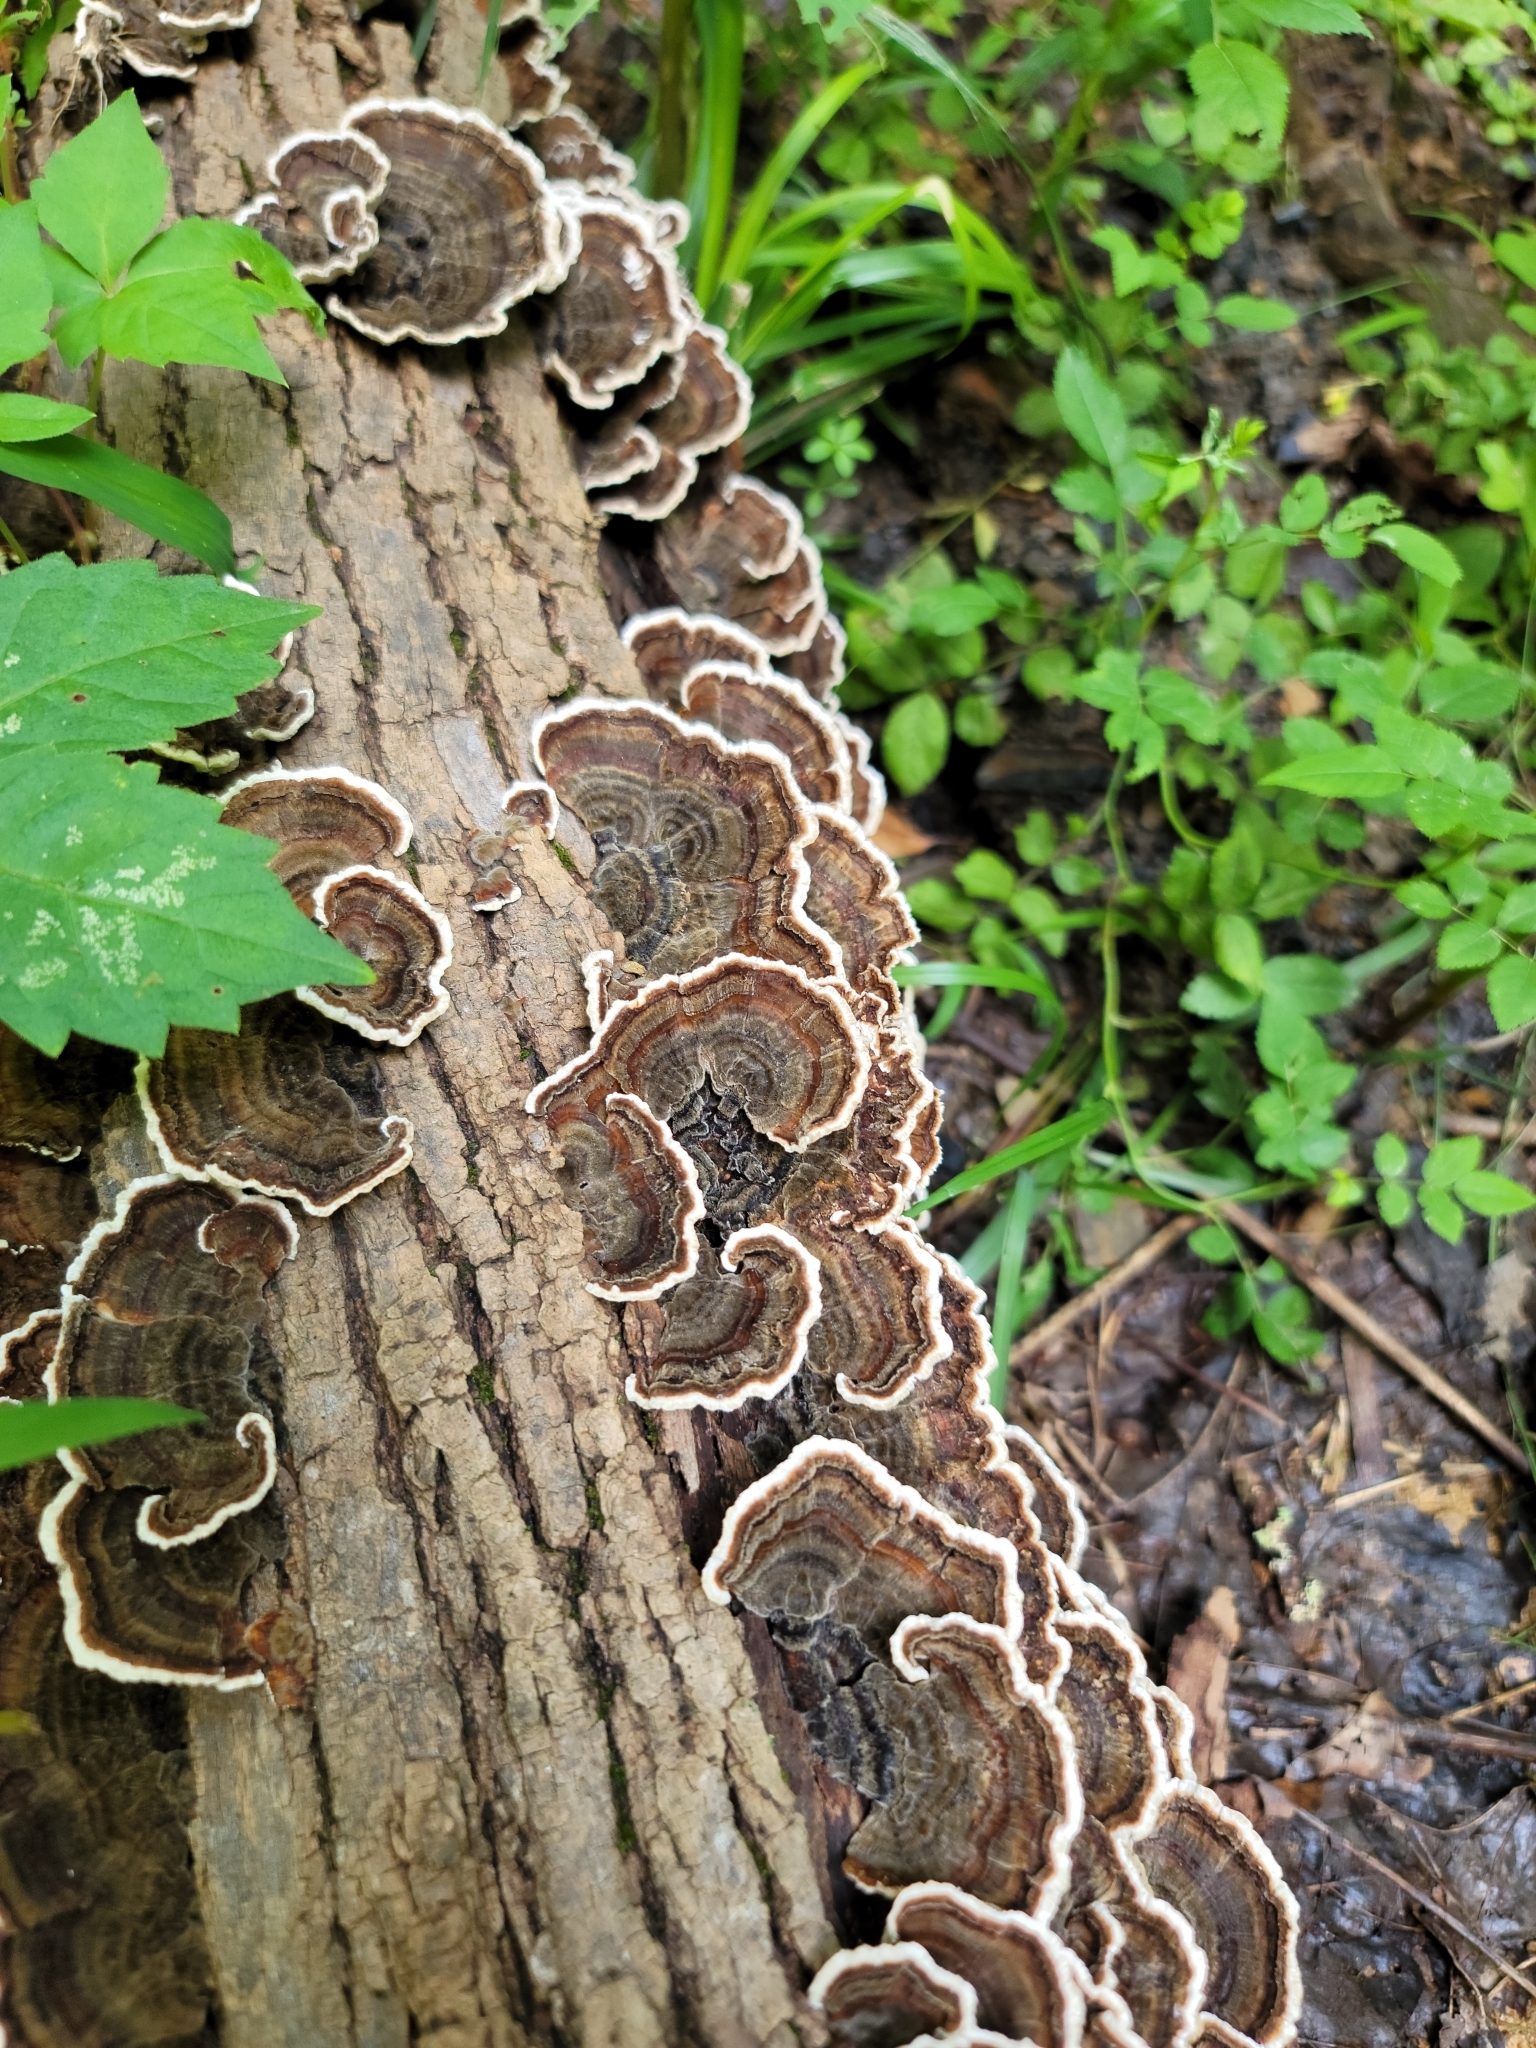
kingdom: Fungi
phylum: Basidiomycota
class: Agaricomycetes
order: Polyporales
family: Polyporaceae
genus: Trametes
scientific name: Trametes versicolor
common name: Turkeytail
